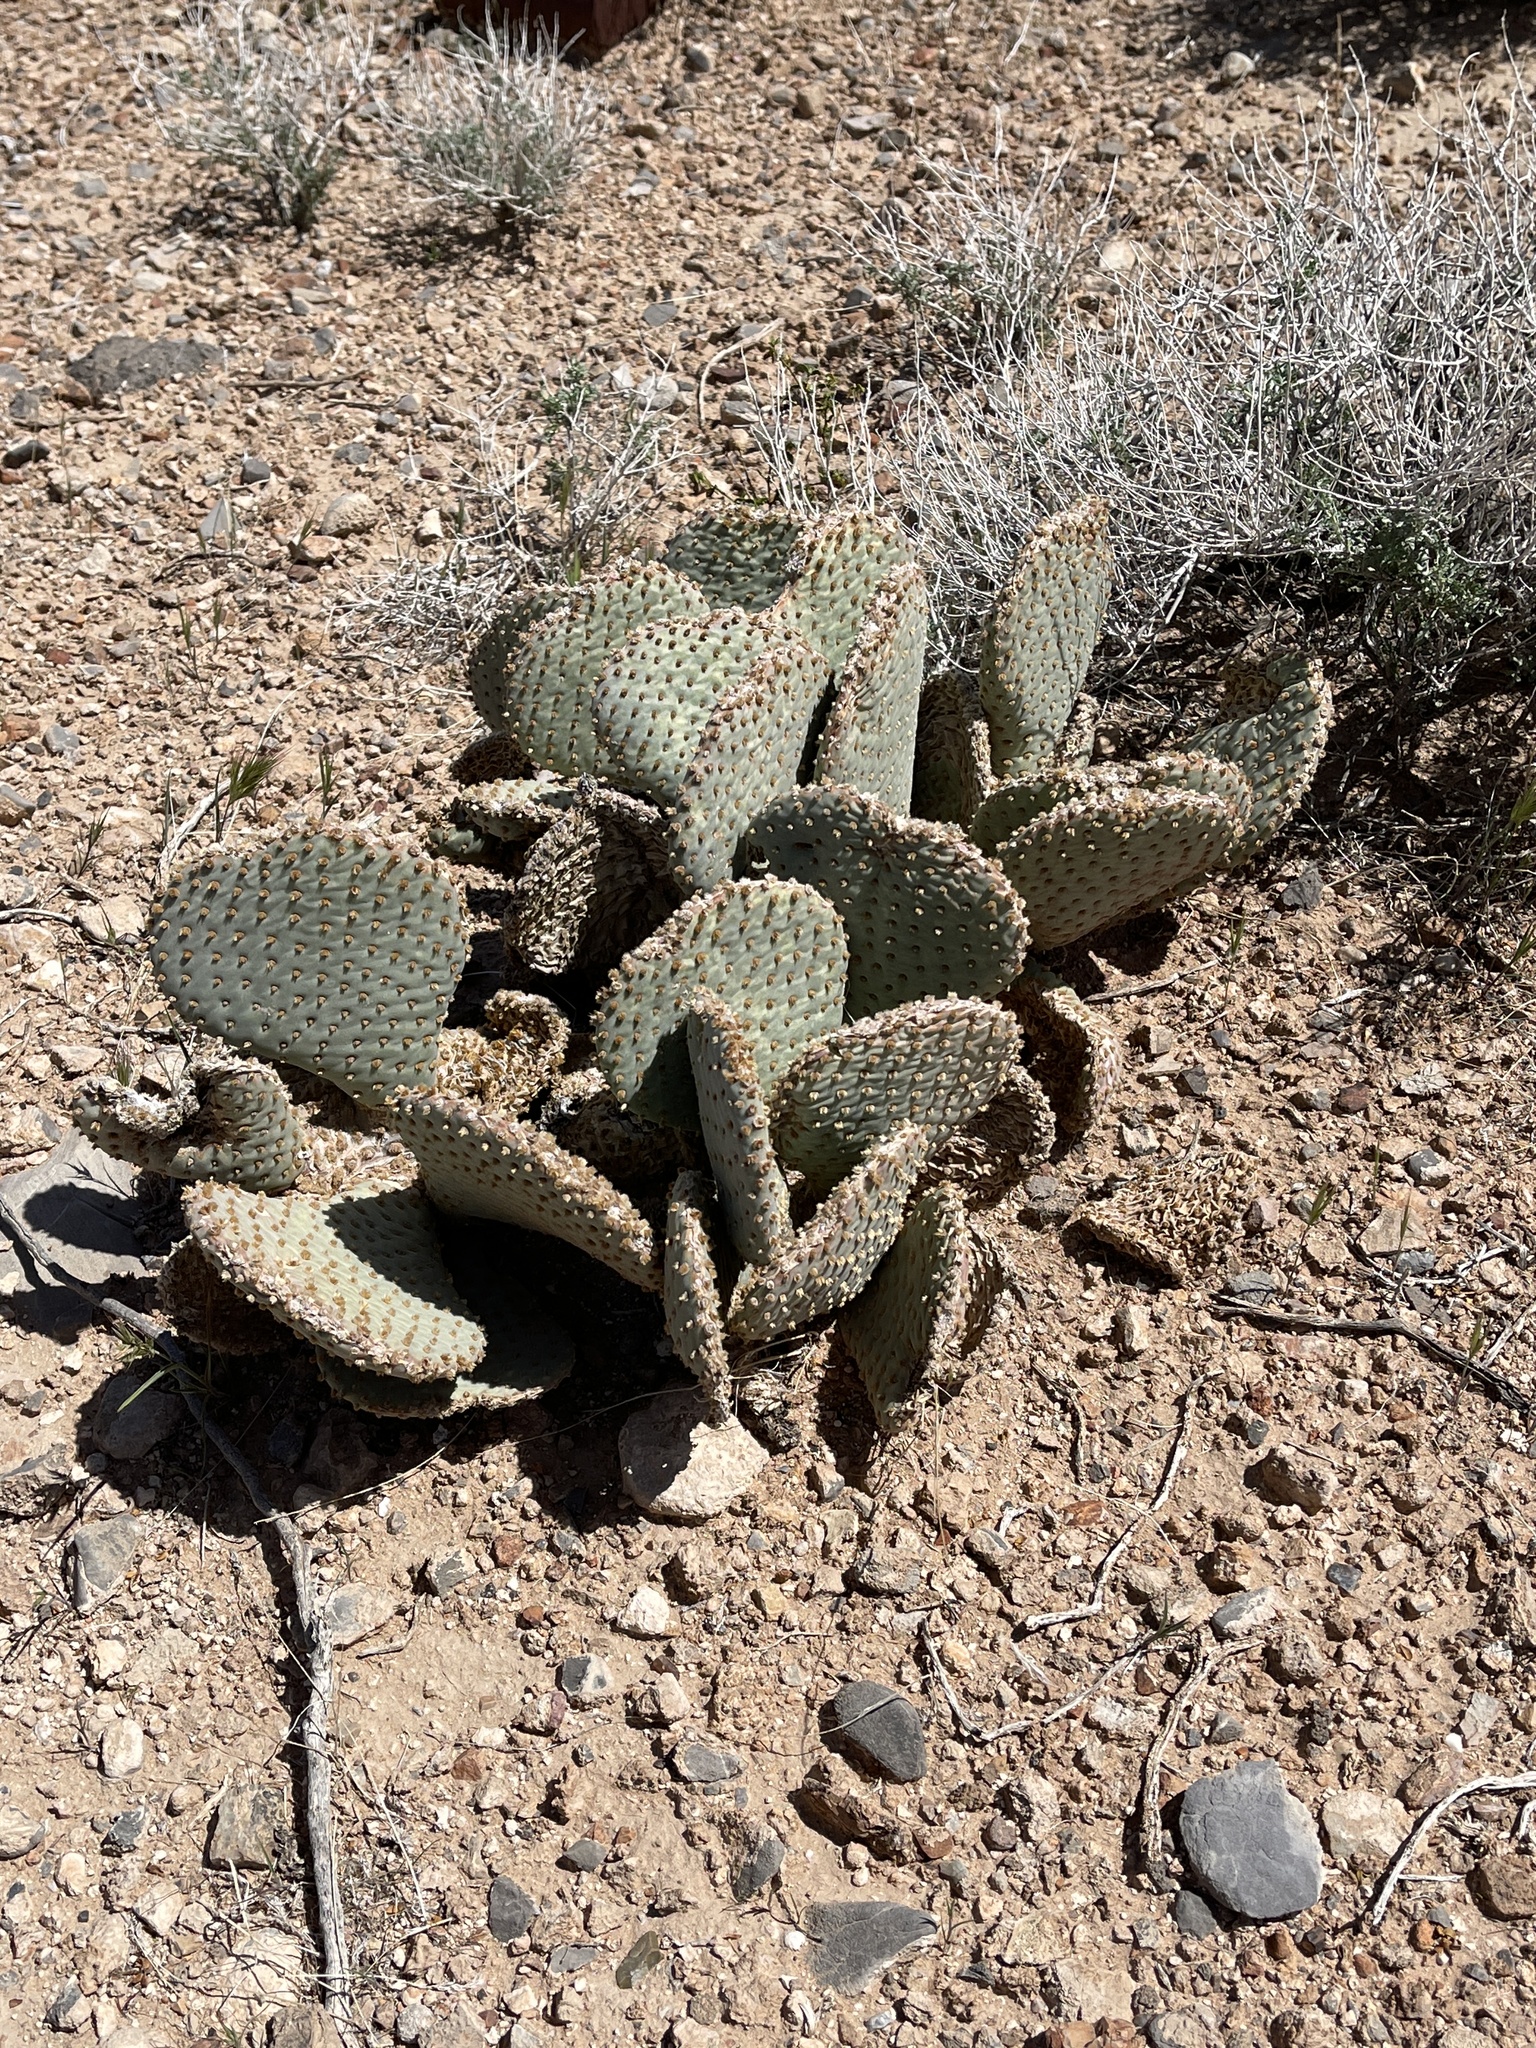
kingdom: Plantae
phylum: Tracheophyta
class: Magnoliopsida
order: Caryophyllales
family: Cactaceae
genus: Opuntia
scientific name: Opuntia basilaris
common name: Beavertail prickly-pear
